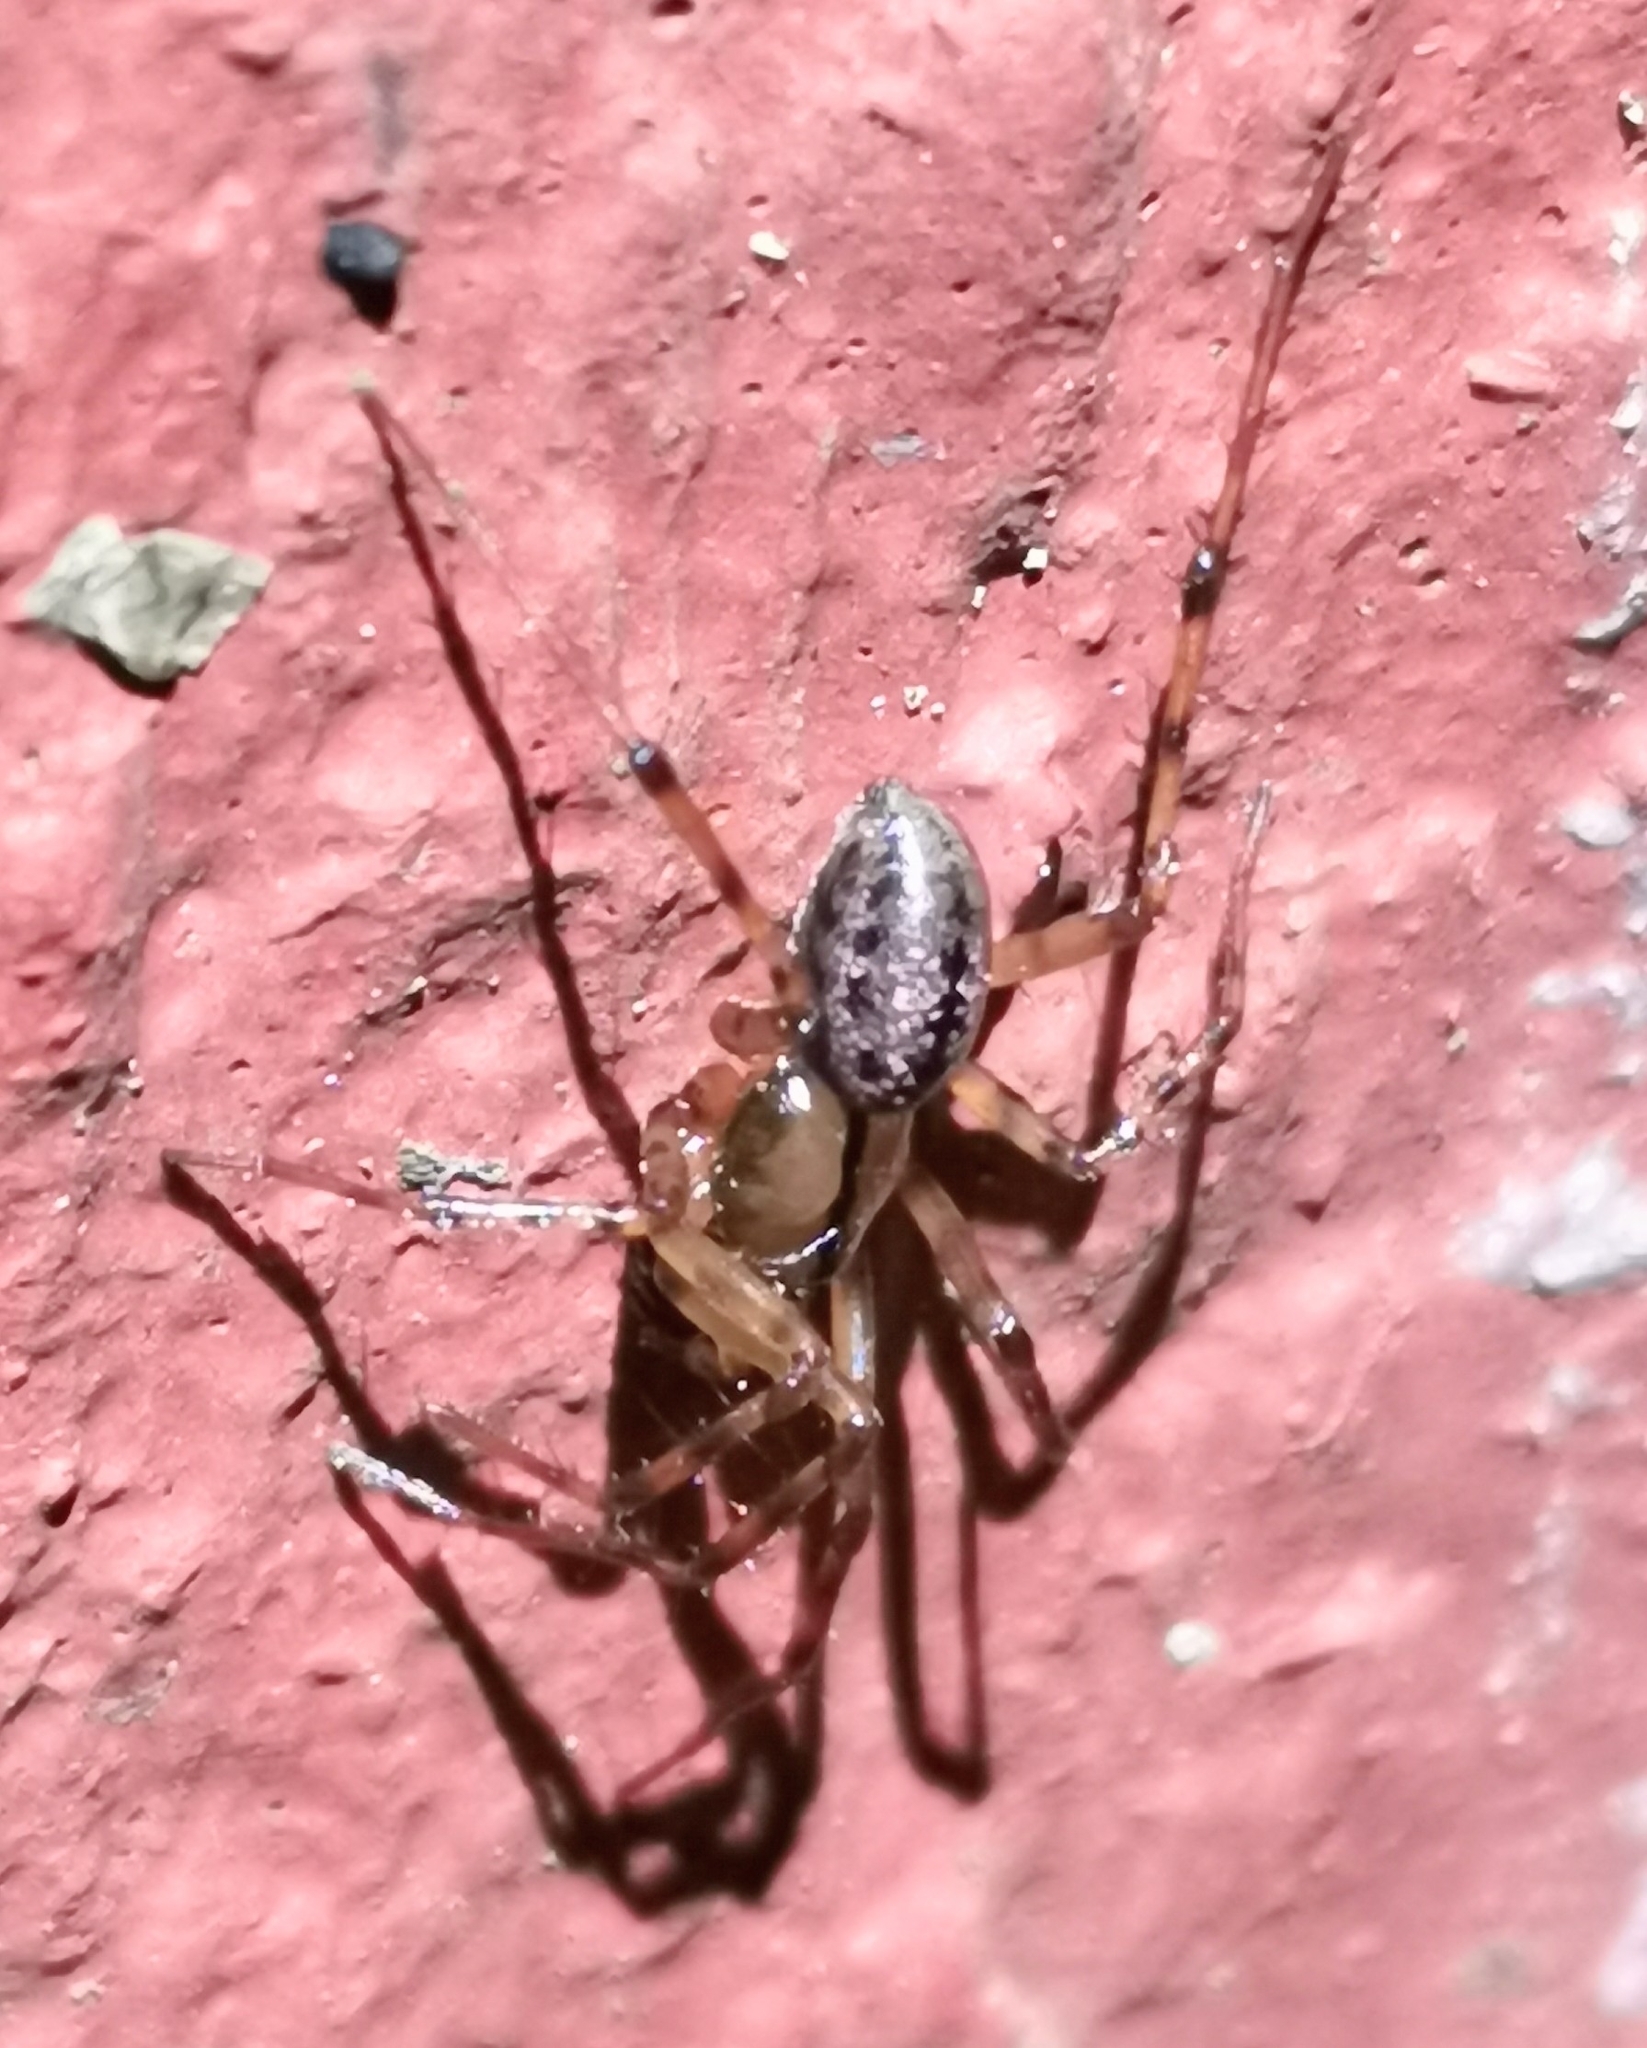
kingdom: Animalia
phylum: Arthropoda
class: Arachnida
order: Araneae
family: Linyphiidae
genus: Stemonyphantes
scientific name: Stemonyphantes lineatus
